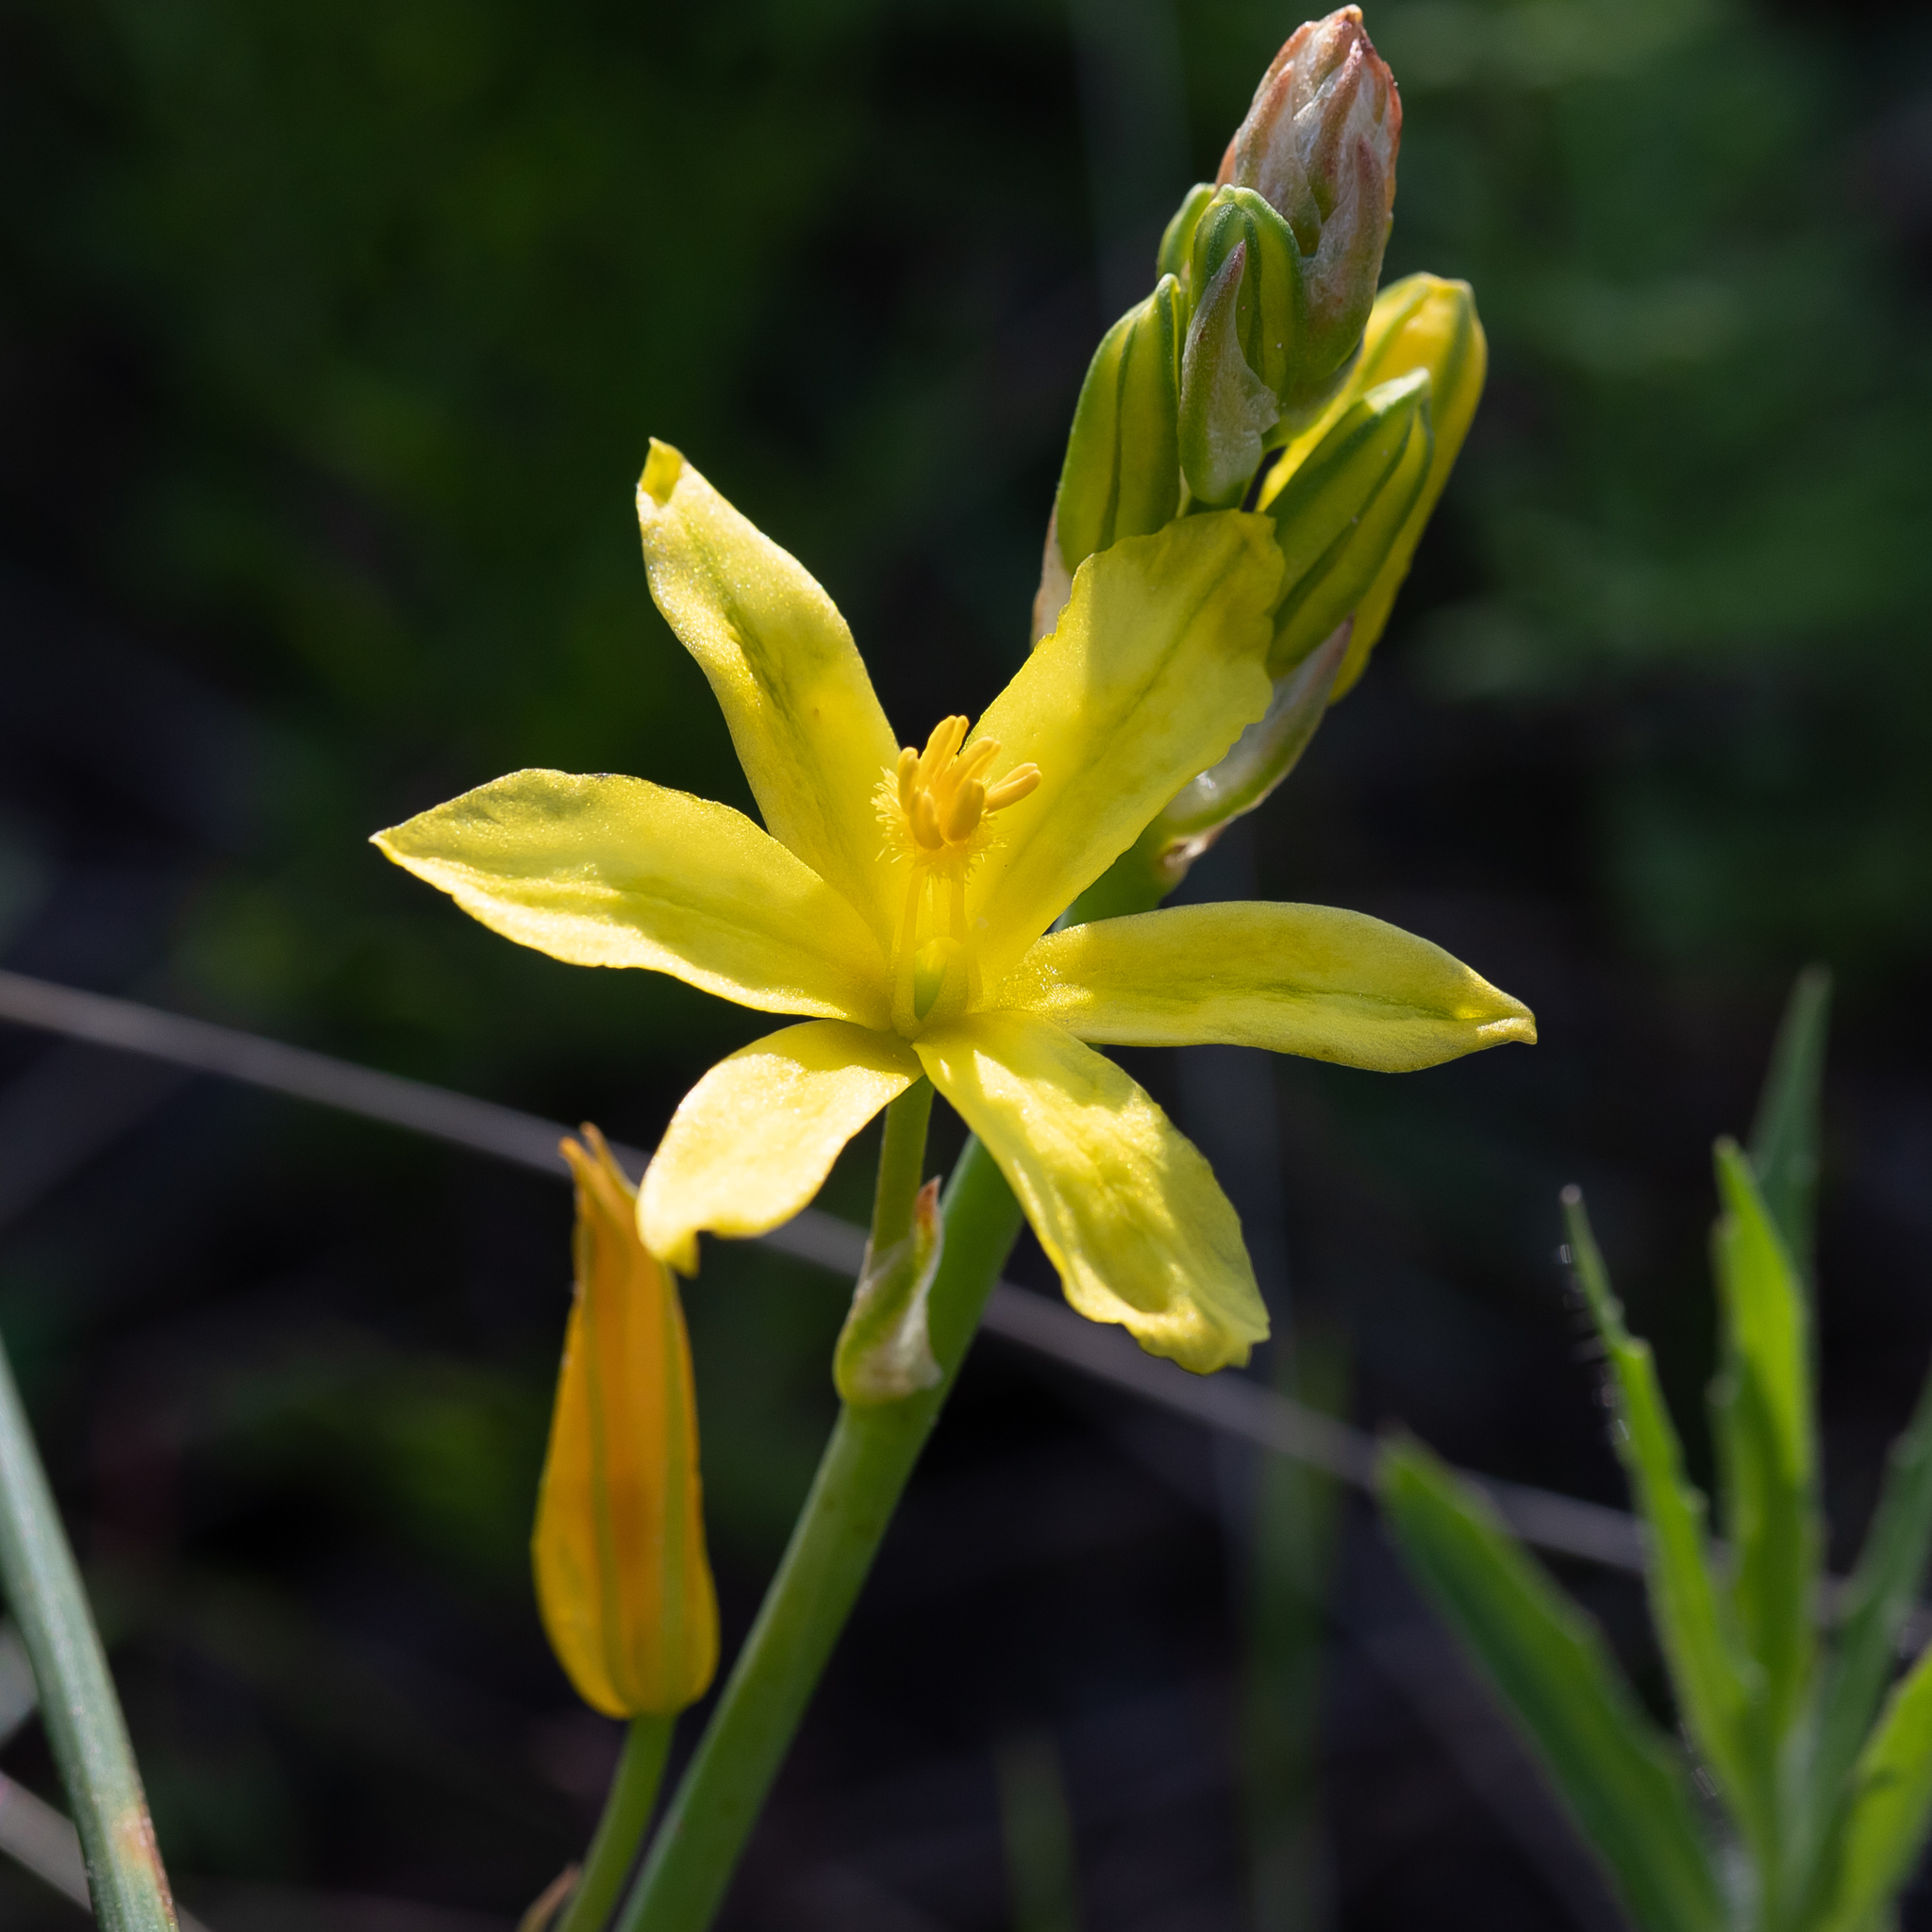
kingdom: Plantae
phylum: Tracheophyta
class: Liliopsida
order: Asparagales
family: Asphodelaceae
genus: Bulbine
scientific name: Bulbine bulbosa
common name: Golden-lily
